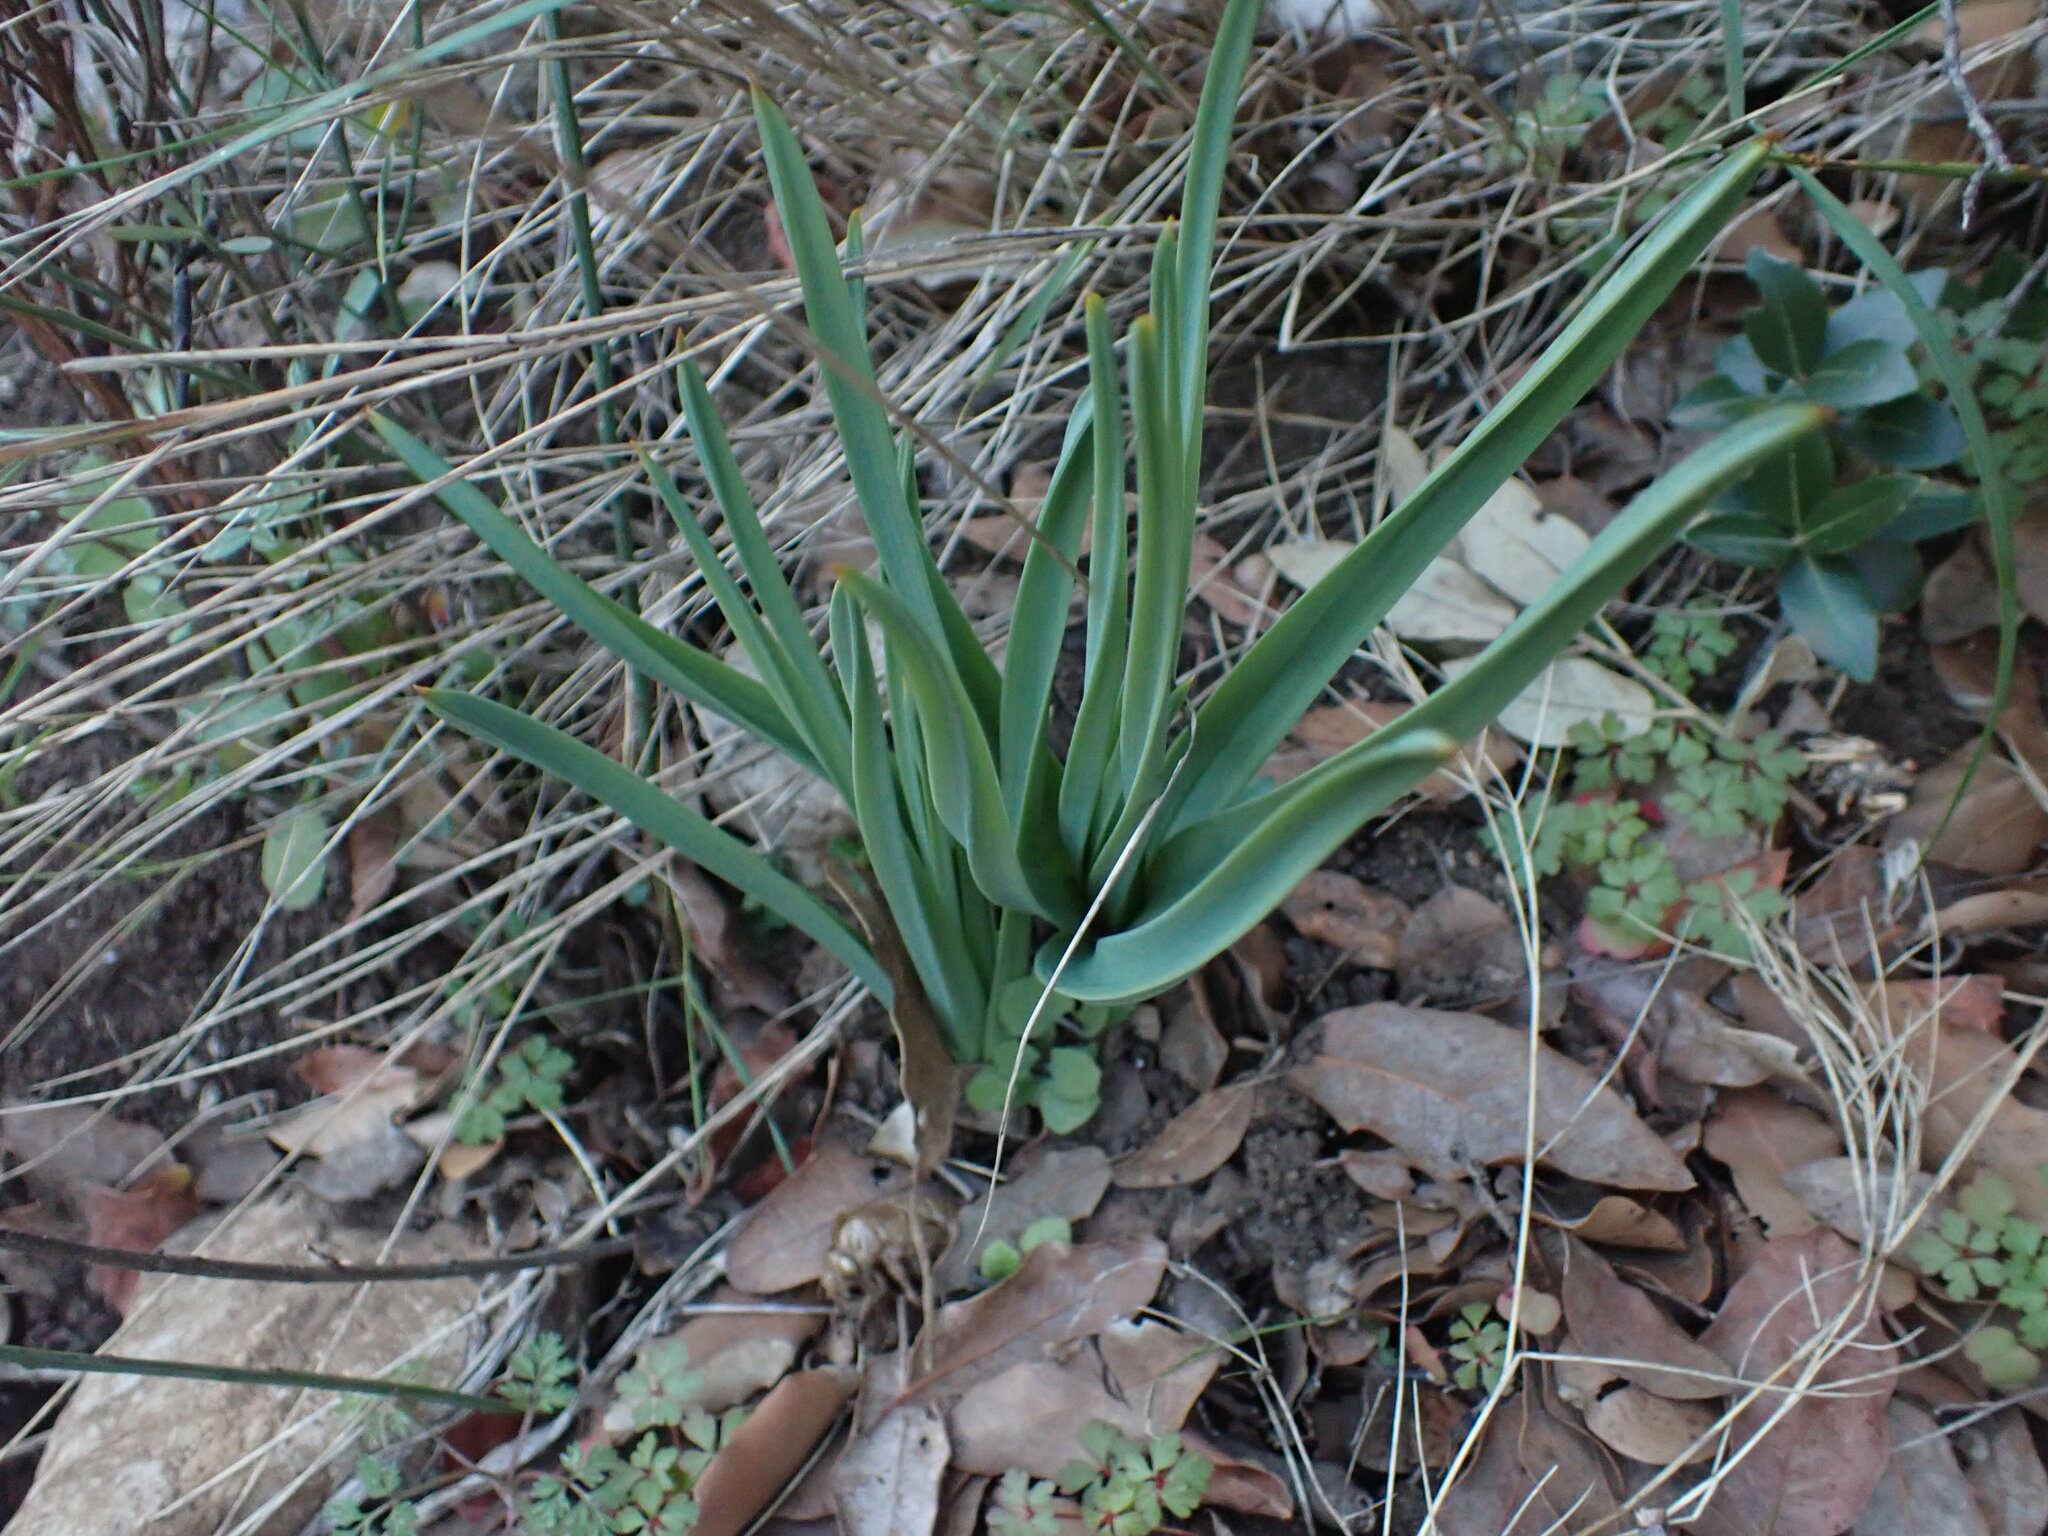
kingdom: Plantae
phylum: Tracheophyta
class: Liliopsida
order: Asparagales
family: Asphodelaceae
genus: Asphodelus
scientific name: Asphodelus cerasifer
